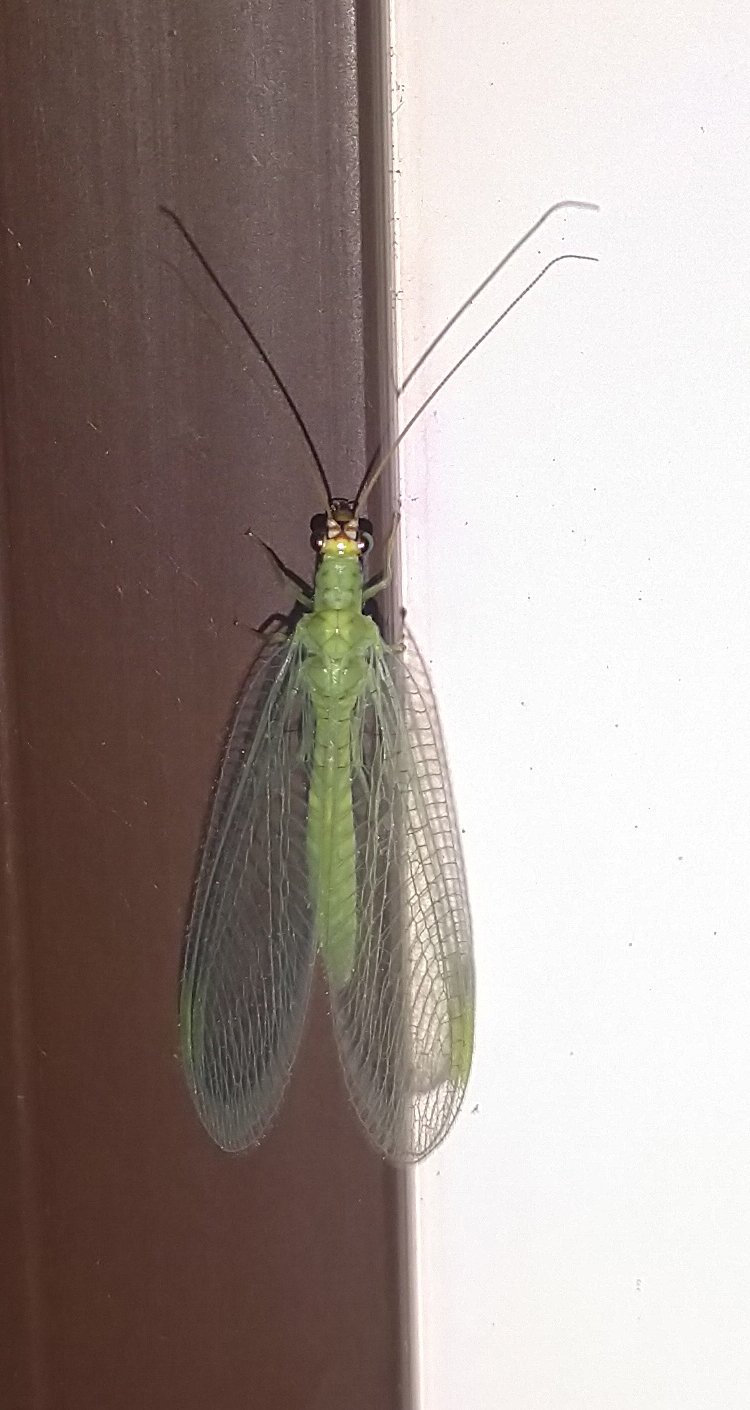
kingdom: Animalia
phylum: Arthropoda
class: Insecta
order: Neuroptera
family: Chrysopidae
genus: Chrysopa
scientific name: Chrysopa oculata
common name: Golden-eyed lacewing
